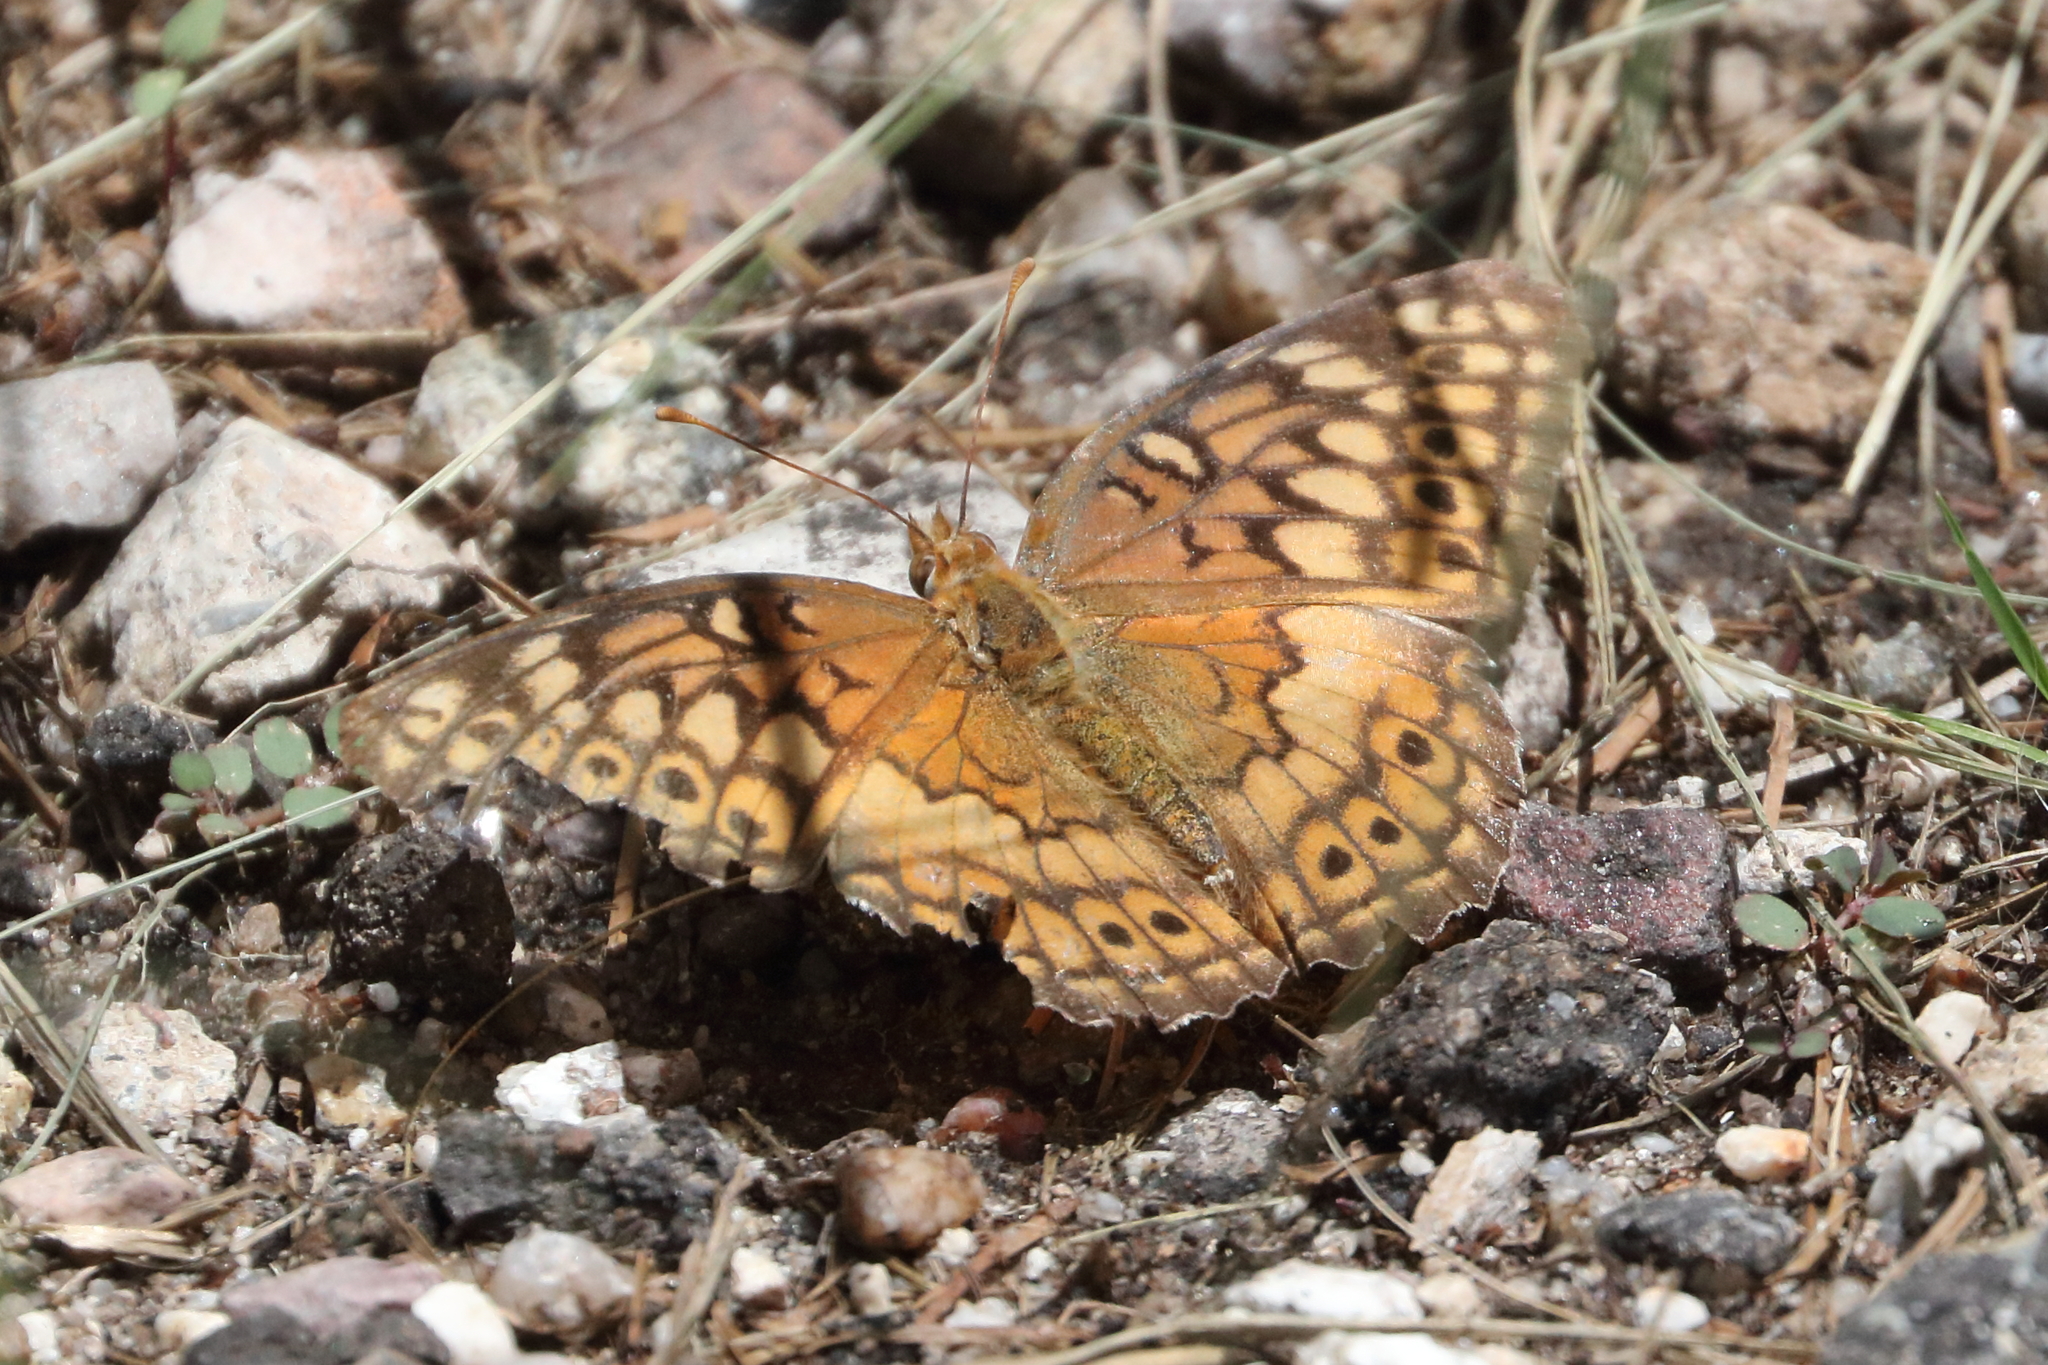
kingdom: Animalia
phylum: Arthropoda
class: Insecta
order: Lepidoptera
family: Nymphalidae
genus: Euptoieta
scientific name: Euptoieta claudia
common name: Variegated fritillary
